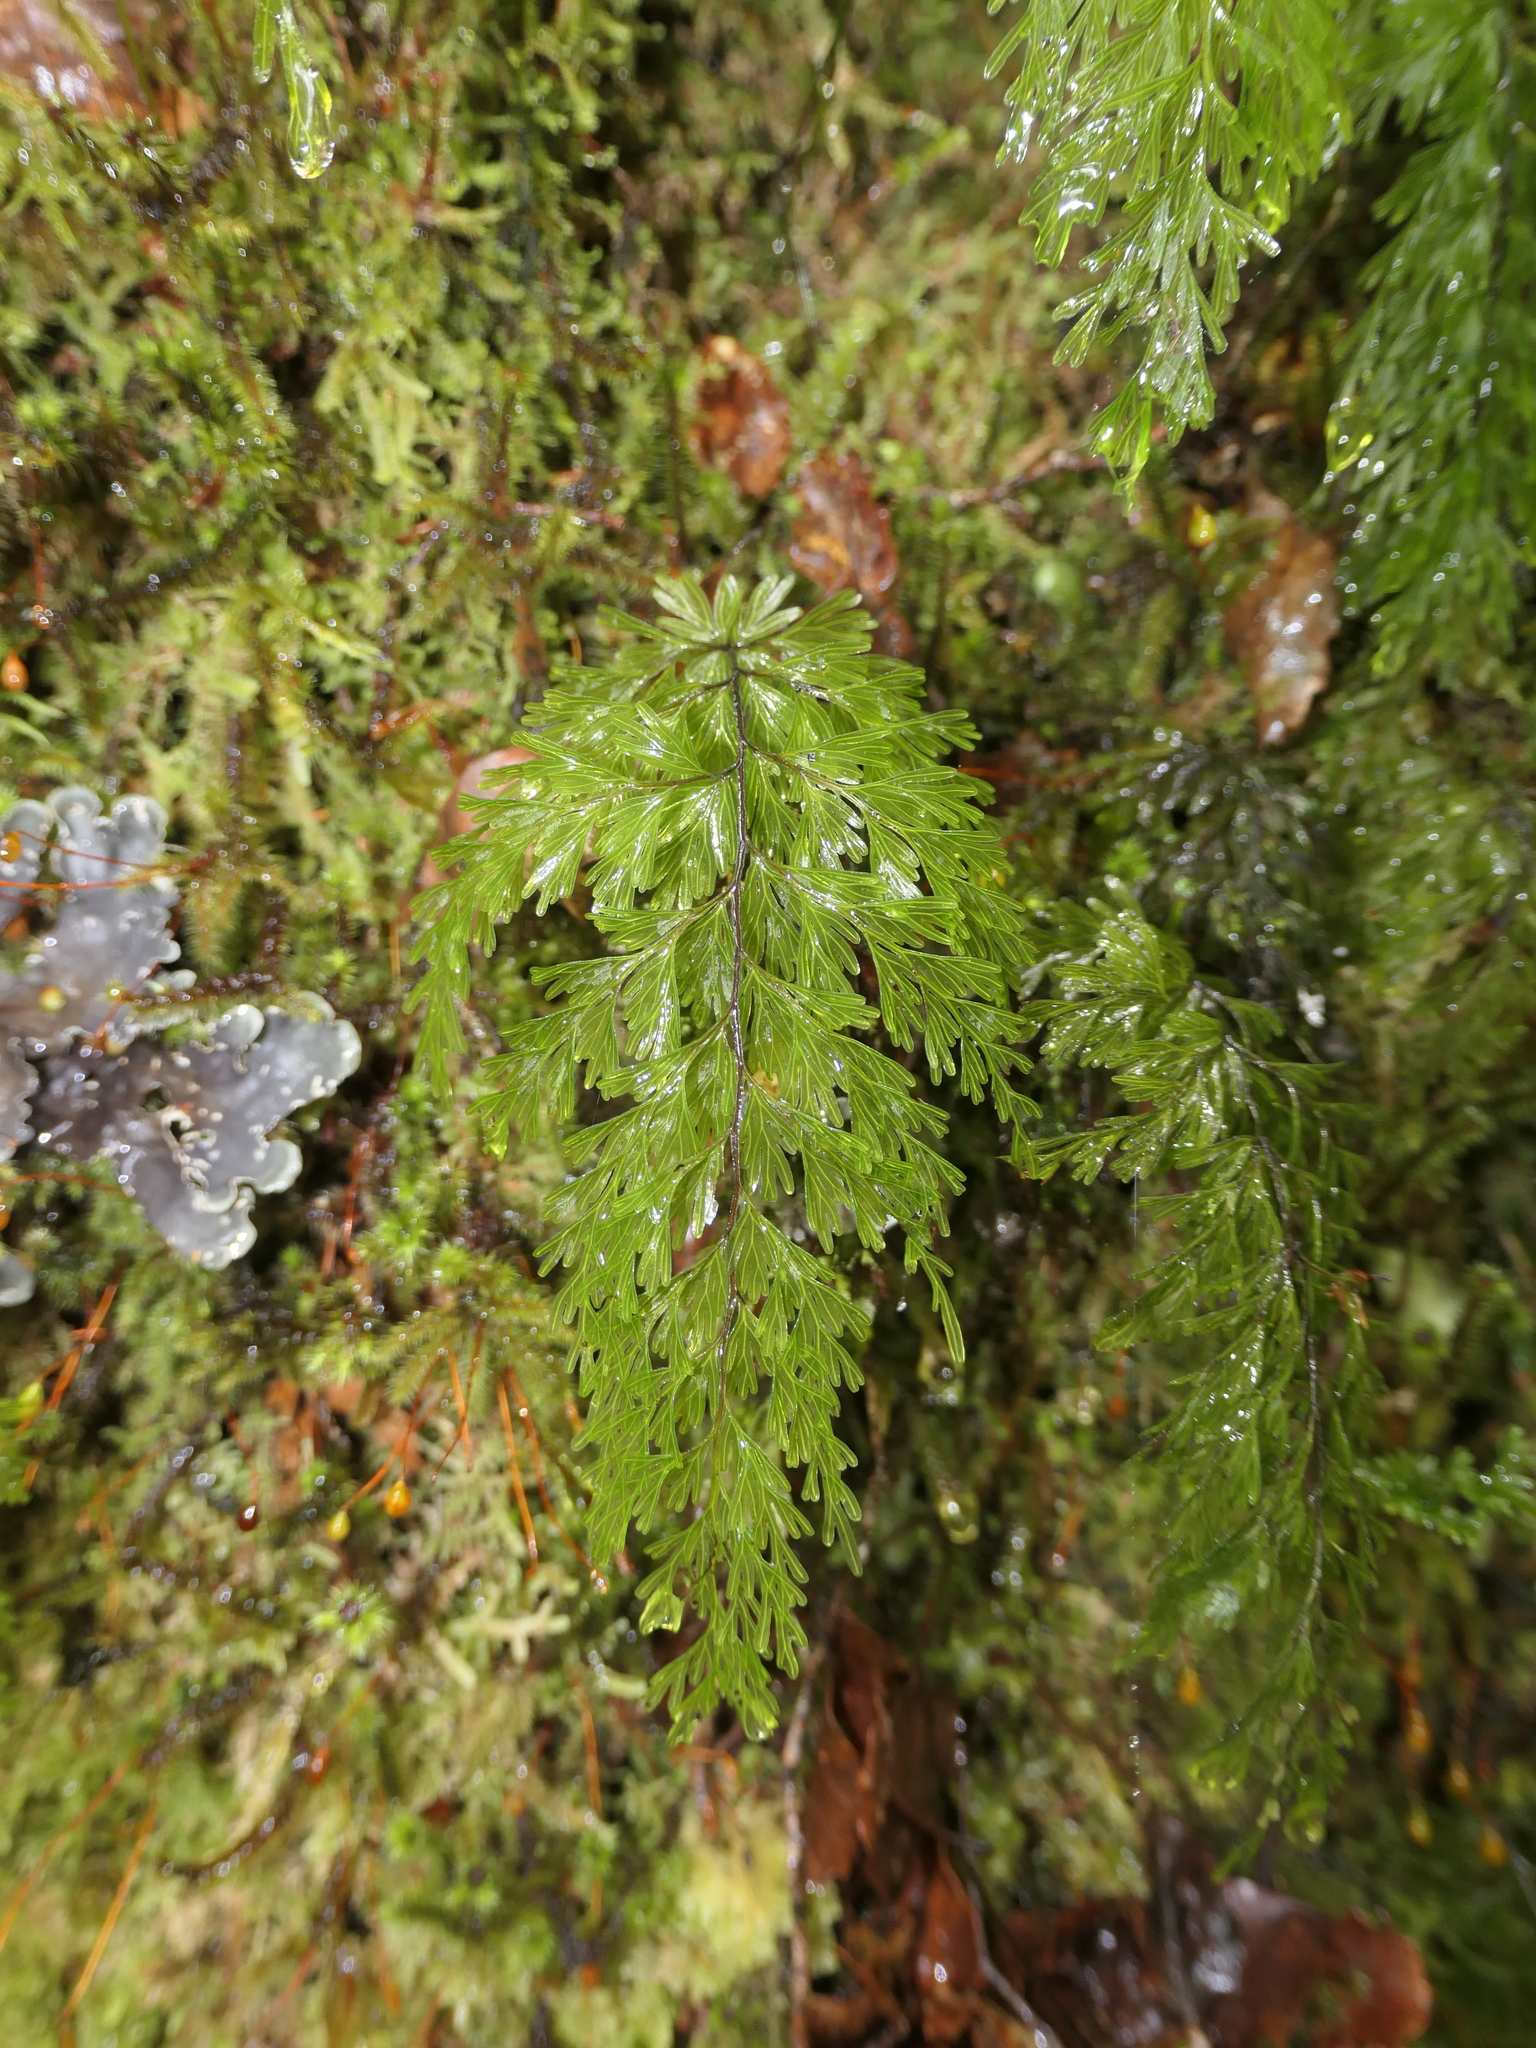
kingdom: Plantae
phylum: Tracheophyta
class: Polypodiopsida
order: Hymenophyllales
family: Hymenophyllaceae
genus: Hymenophyllum
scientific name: Hymenophyllum demissum
